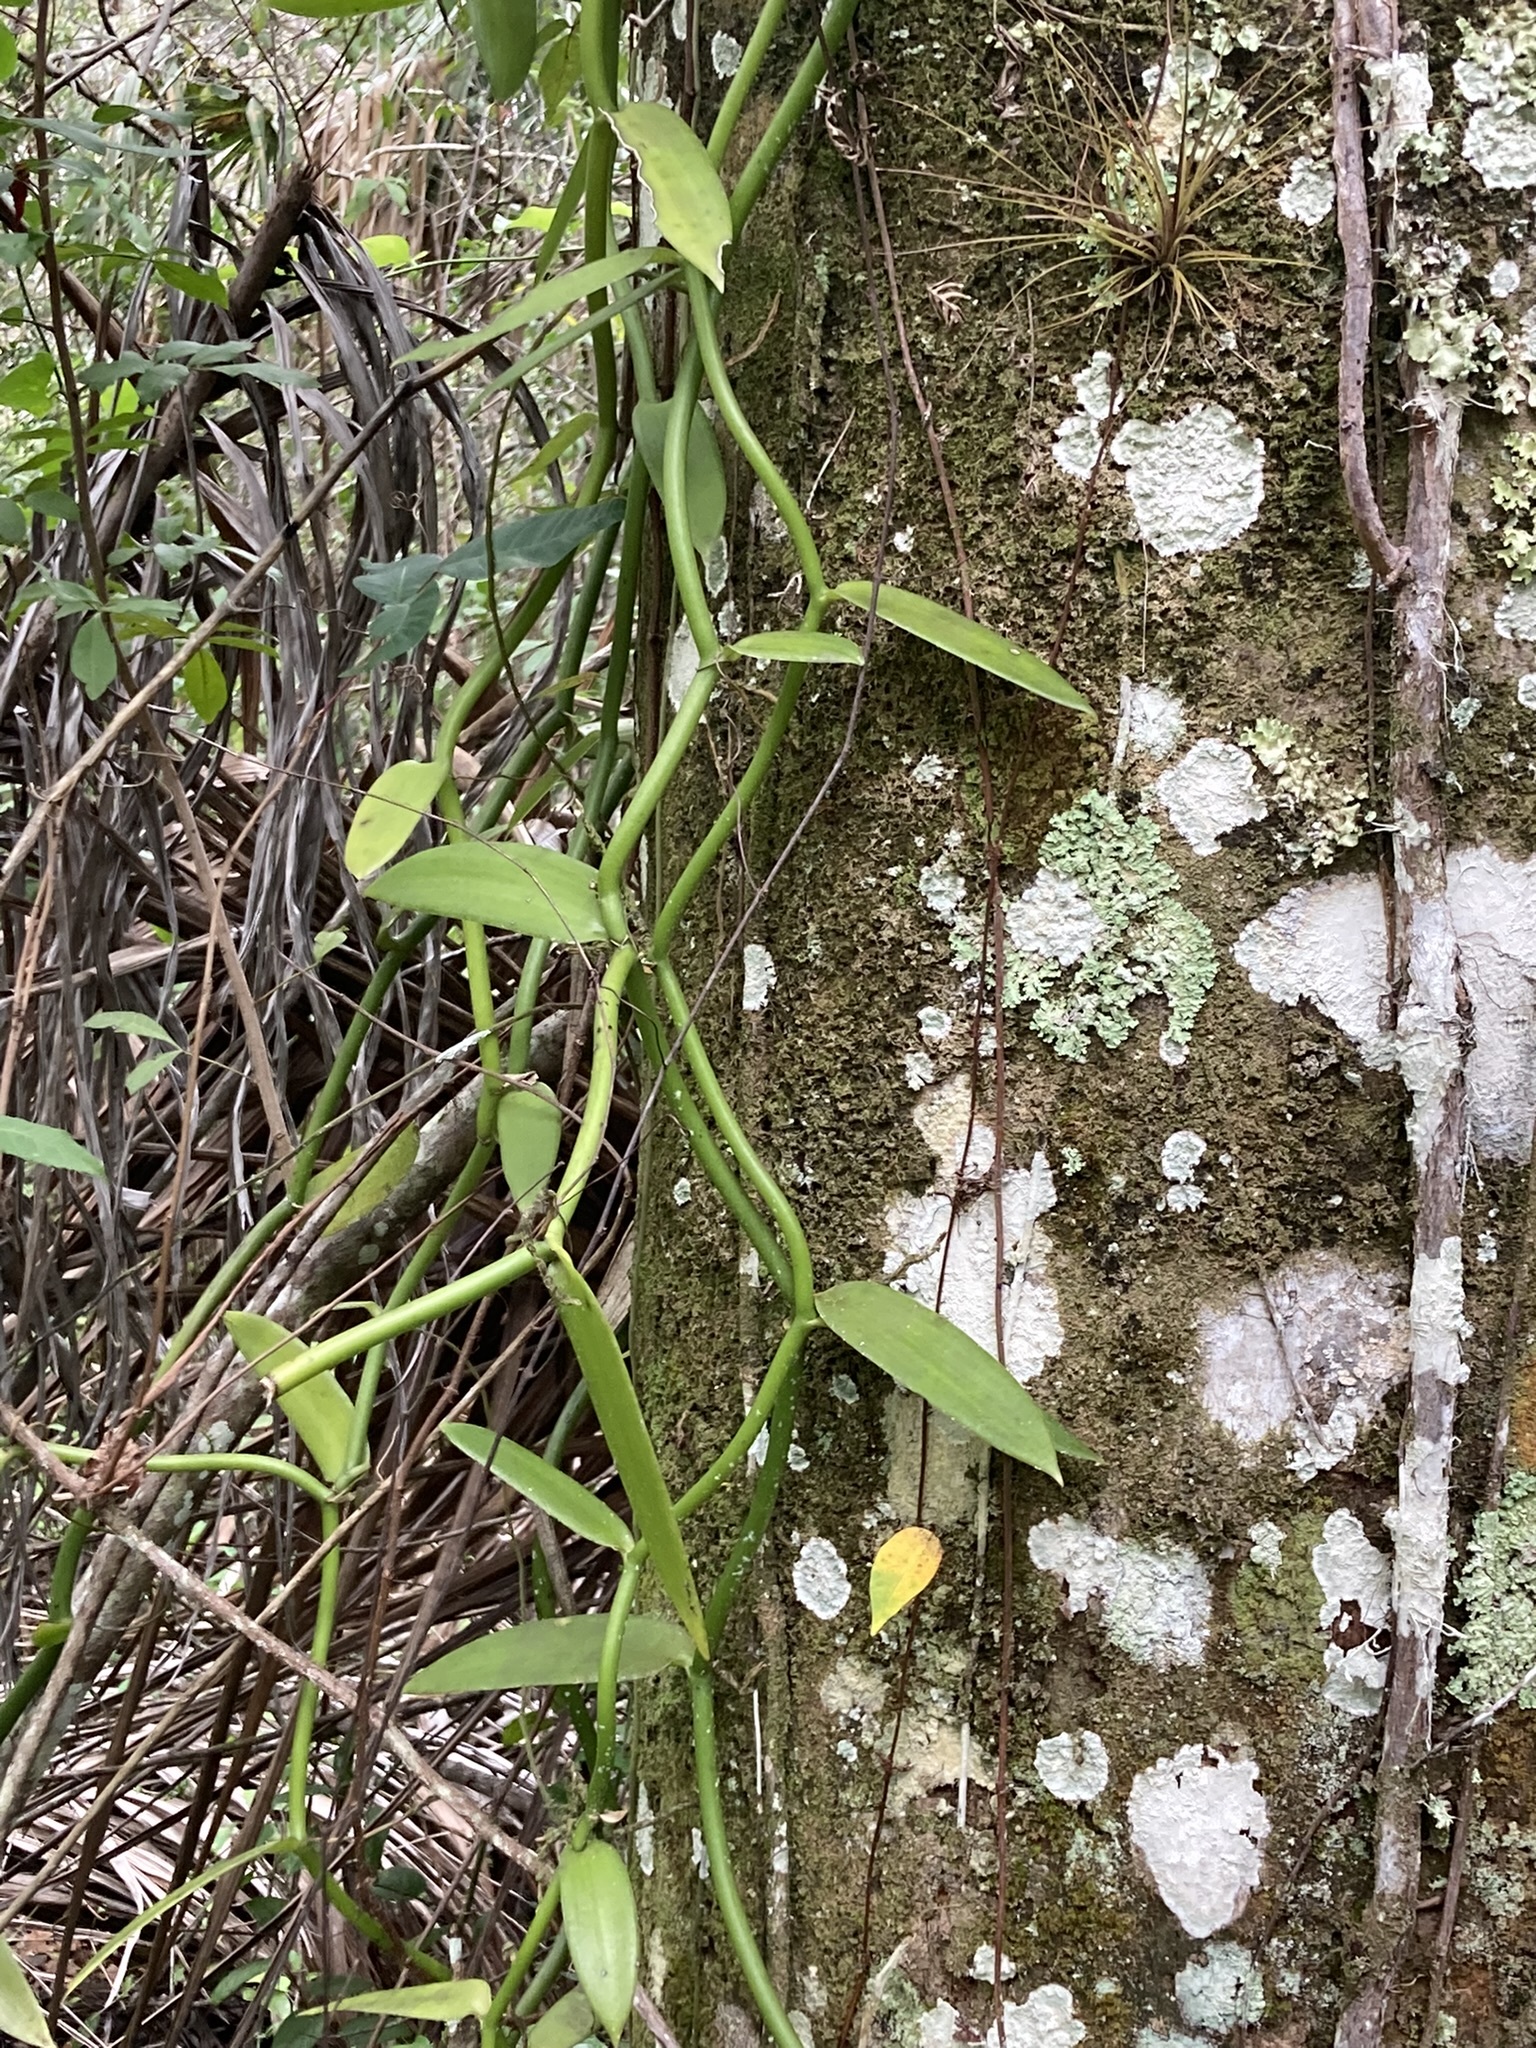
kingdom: Plantae
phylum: Tracheophyta
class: Liliopsida
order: Asparagales
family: Orchidaceae
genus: Vanilla
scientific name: Vanilla phaeantha
